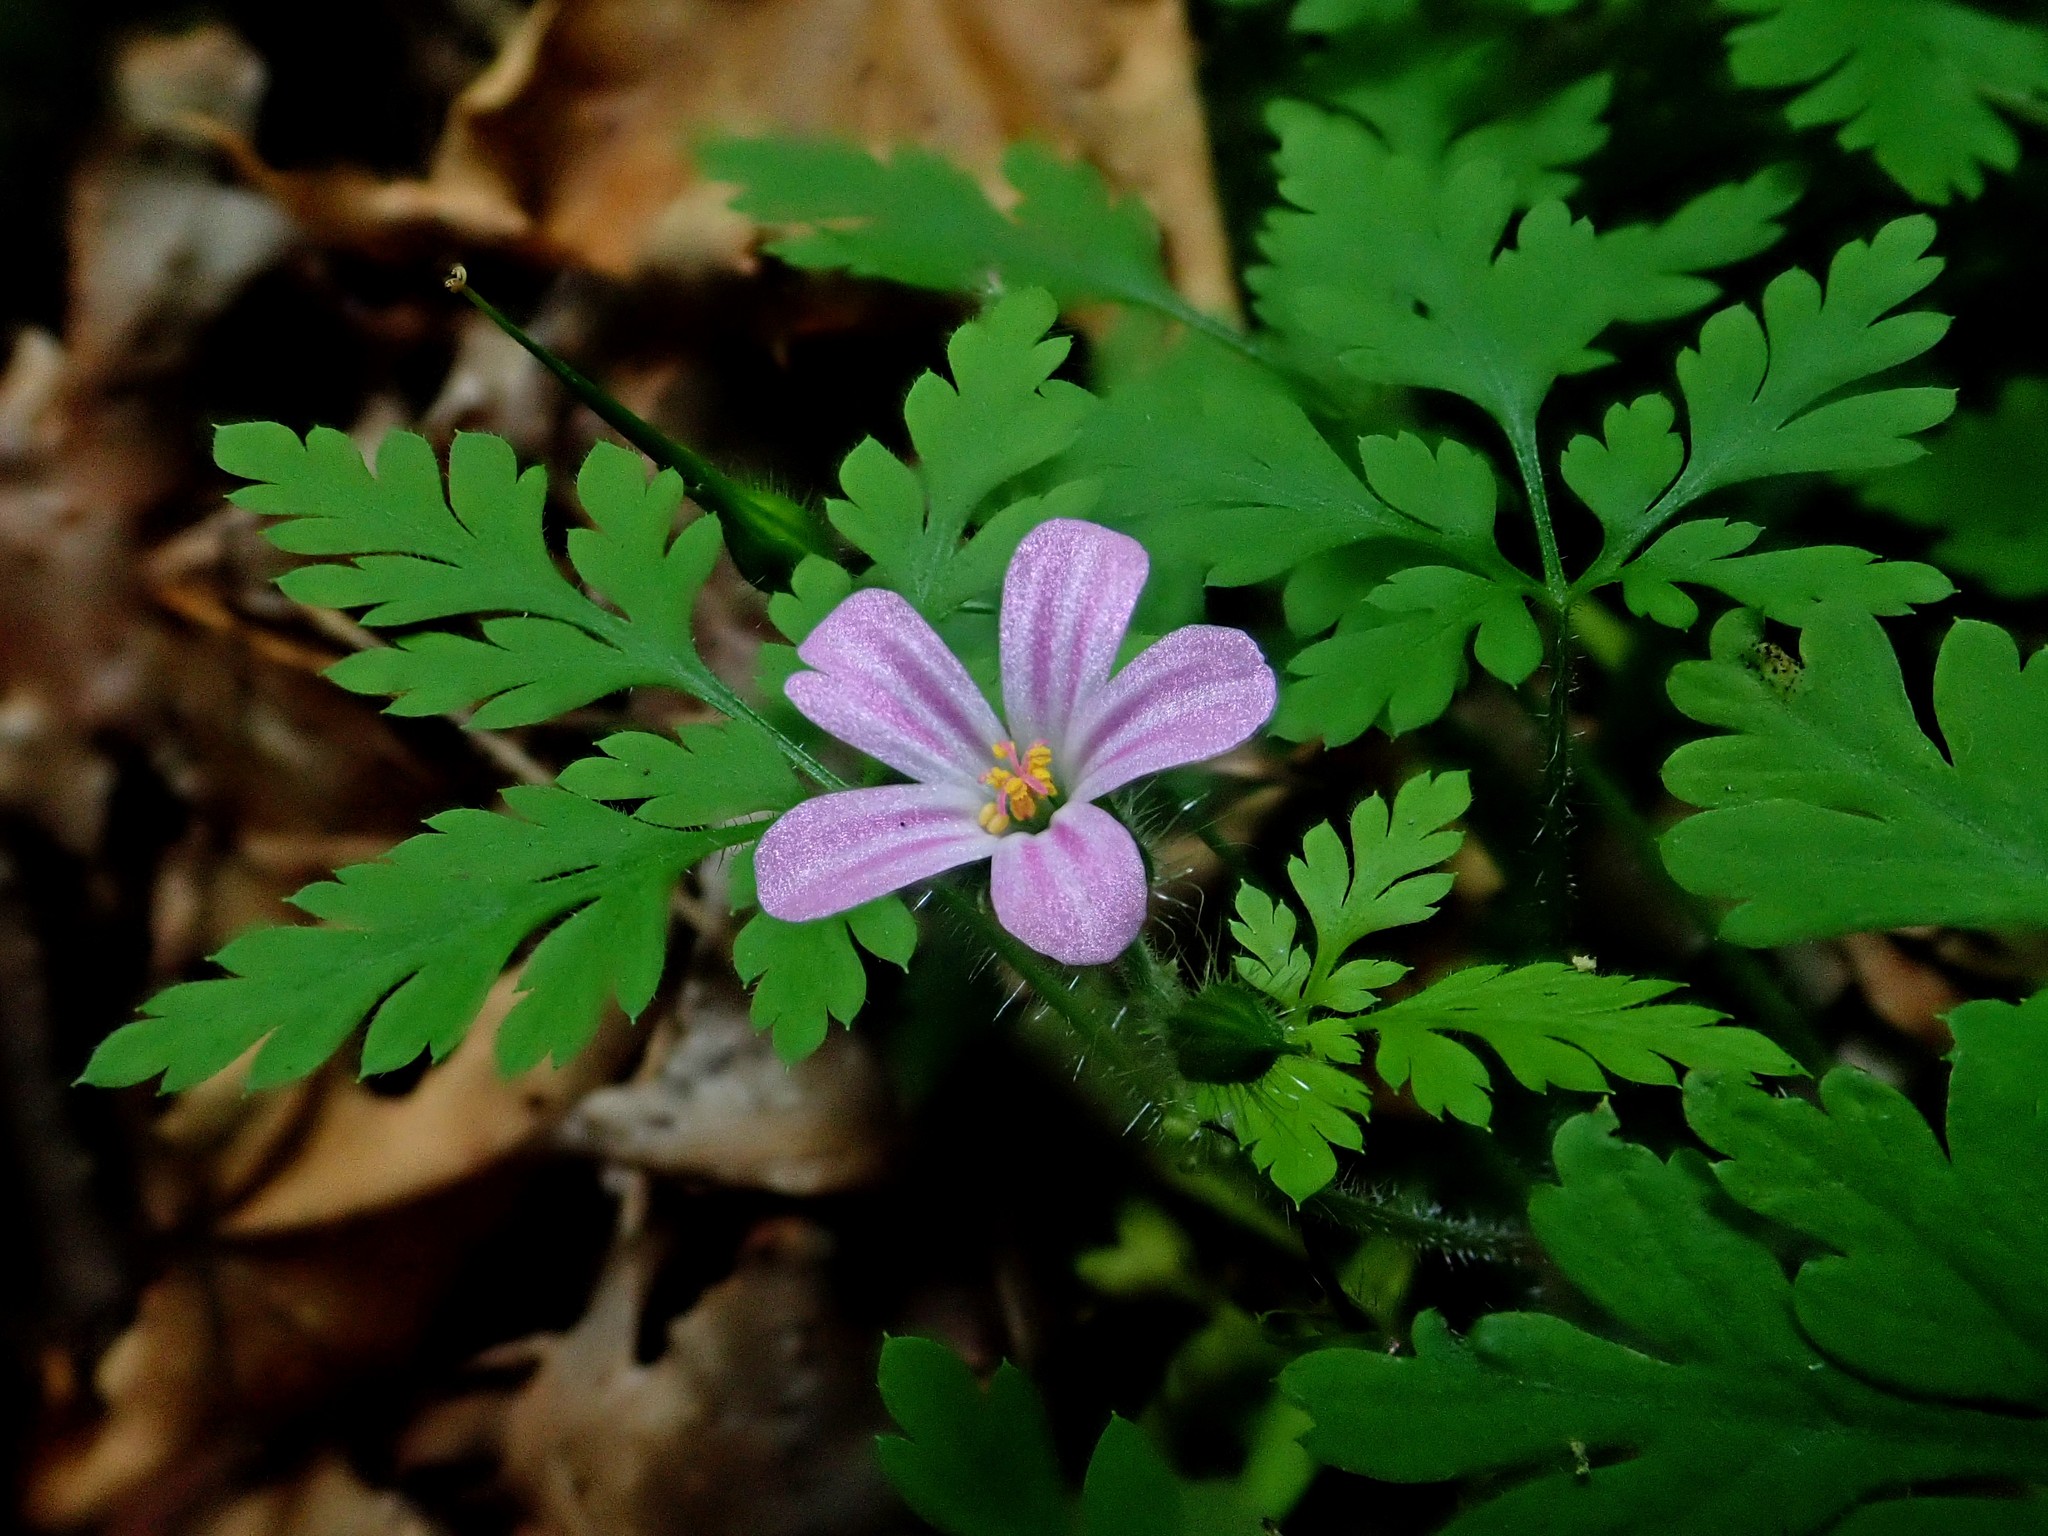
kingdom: Plantae
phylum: Tracheophyta
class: Magnoliopsida
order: Geraniales
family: Geraniaceae
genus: Geranium
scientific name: Geranium robertianum
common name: Herb-robert
